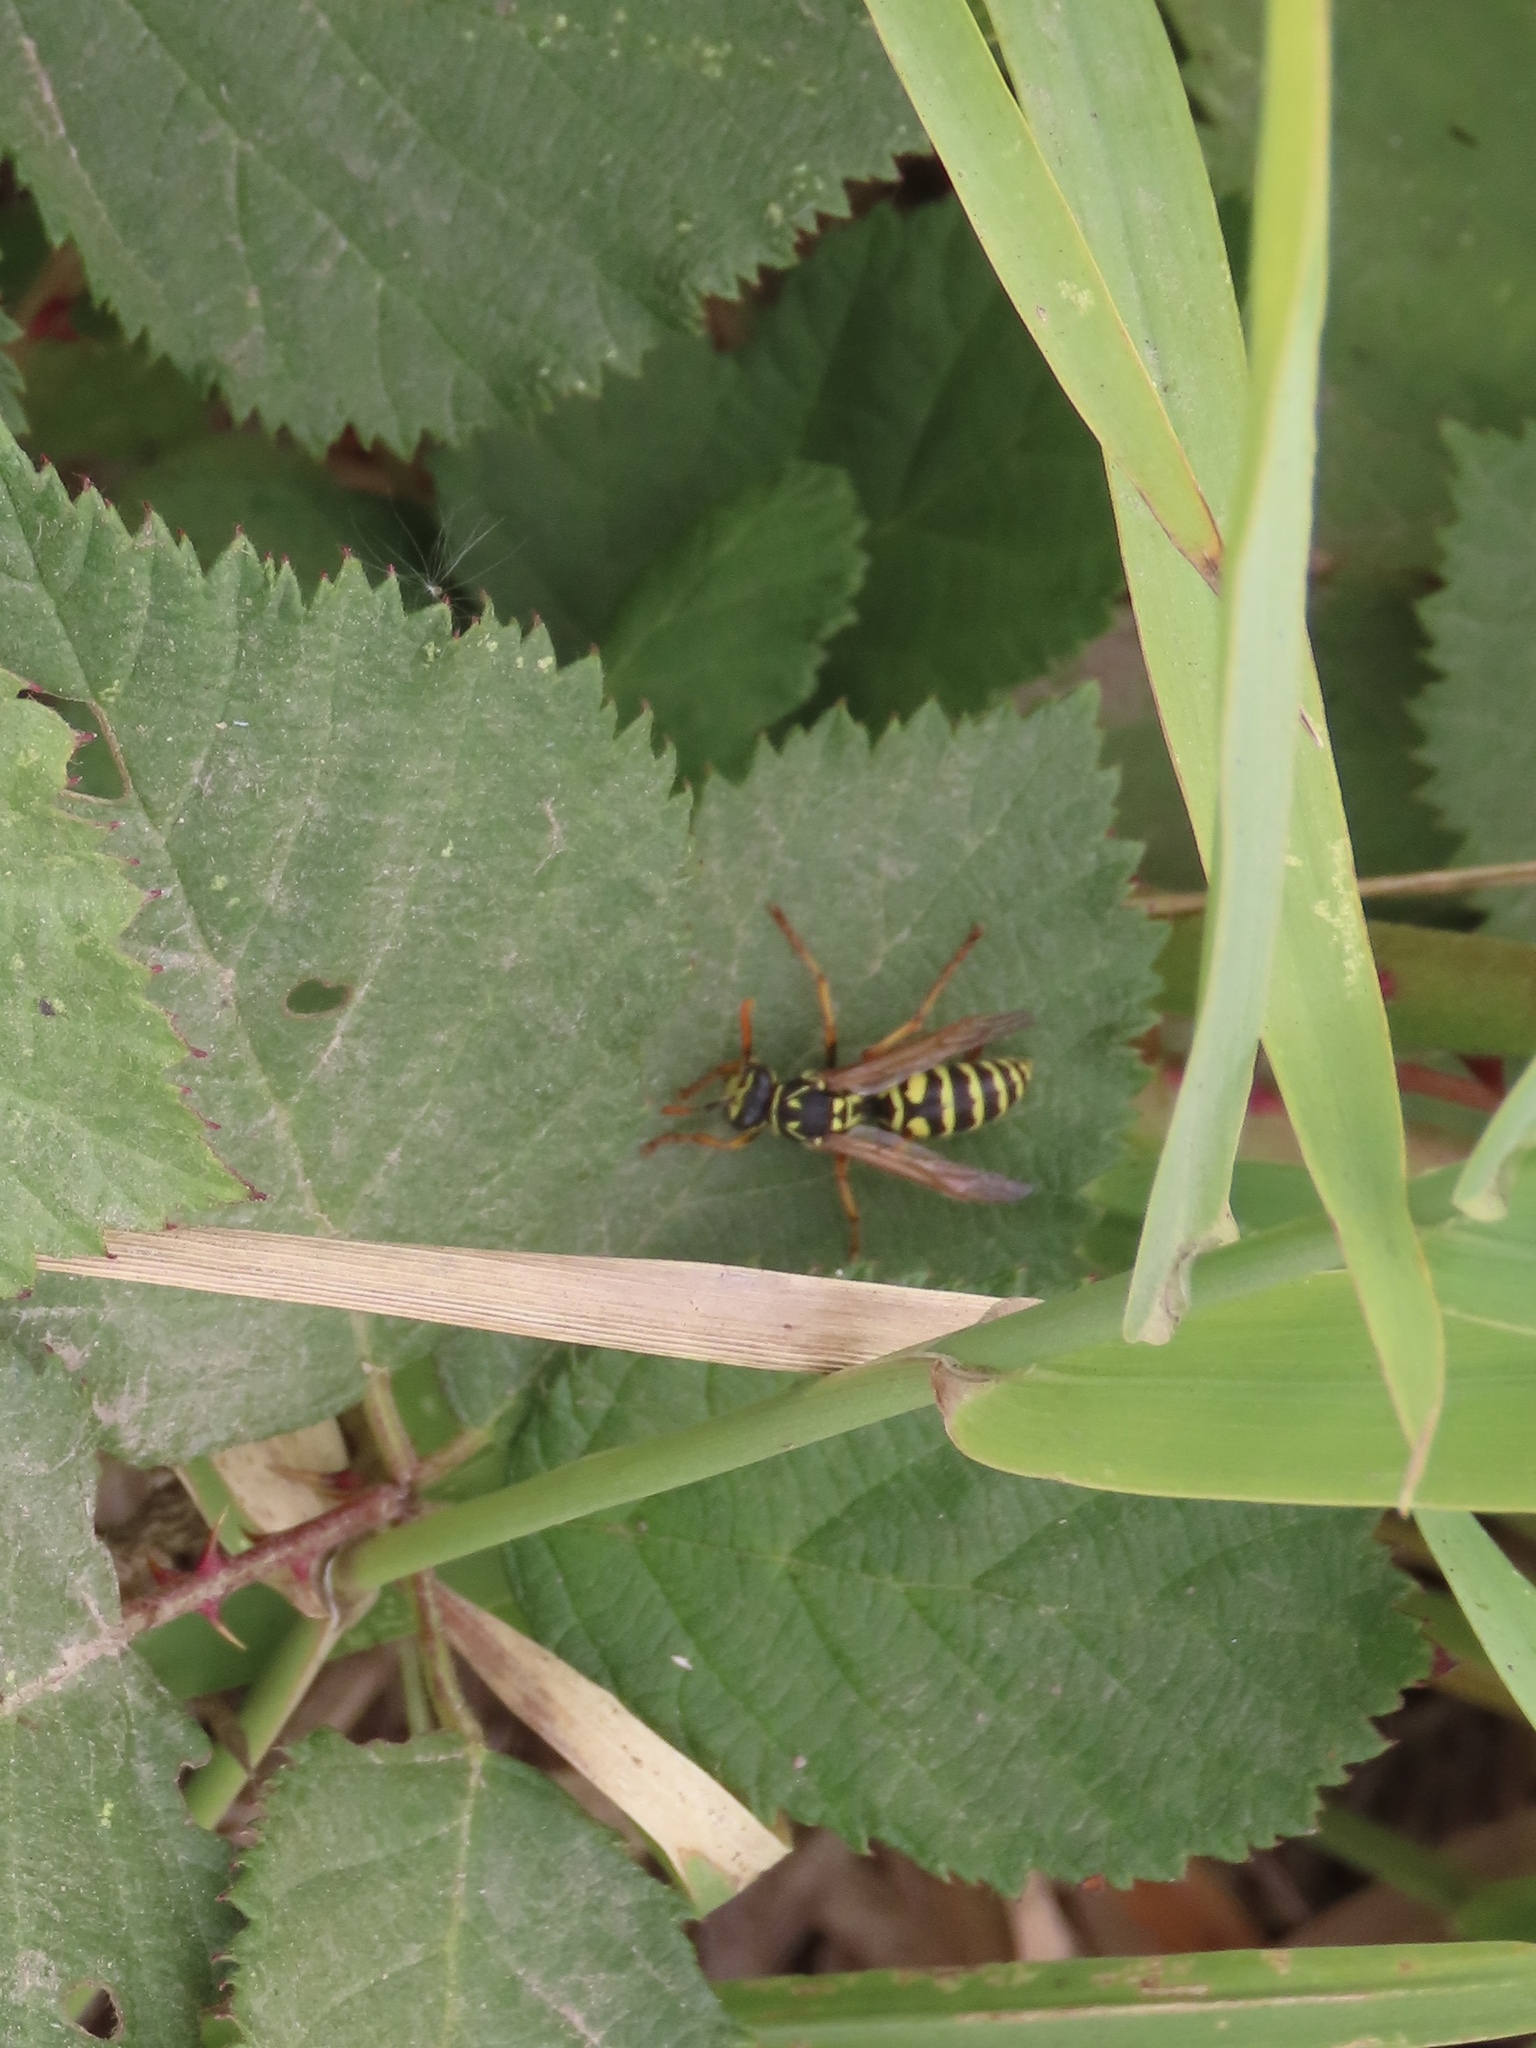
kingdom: Animalia
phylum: Arthropoda
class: Insecta
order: Hymenoptera
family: Eumenidae
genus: Polistes
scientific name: Polistes dominula
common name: Paper wasp
